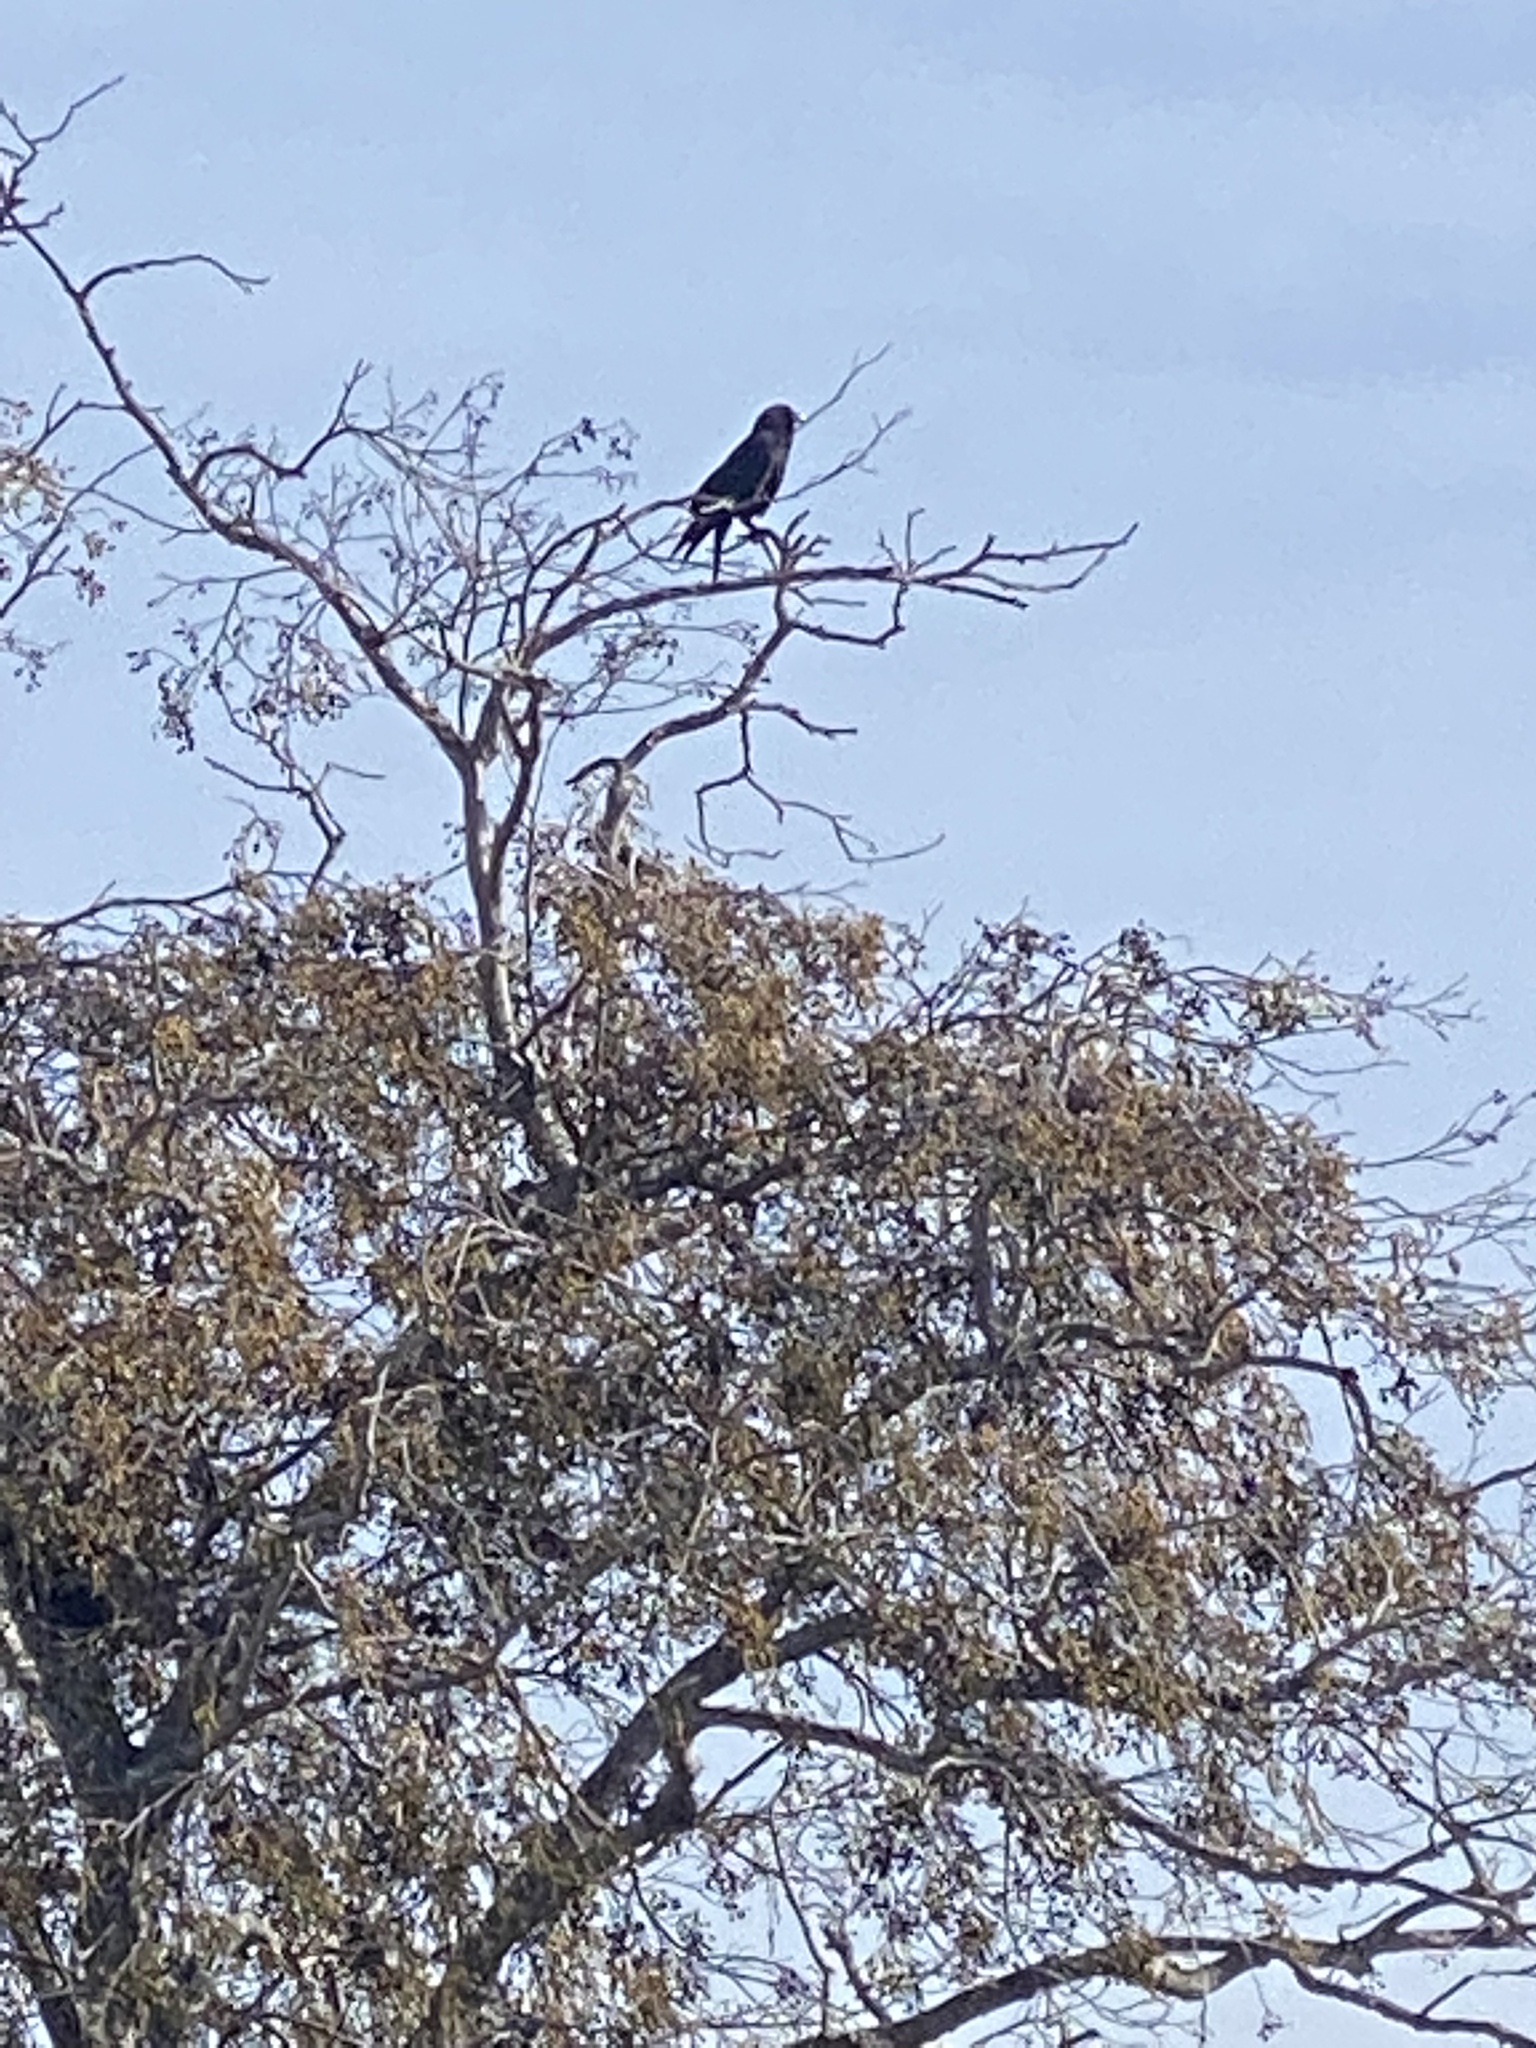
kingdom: Animalia
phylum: Chordata
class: Aves
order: Passeriformes
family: Corvidae
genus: Corvus
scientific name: Corvus brachyrhynchos
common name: American crow
